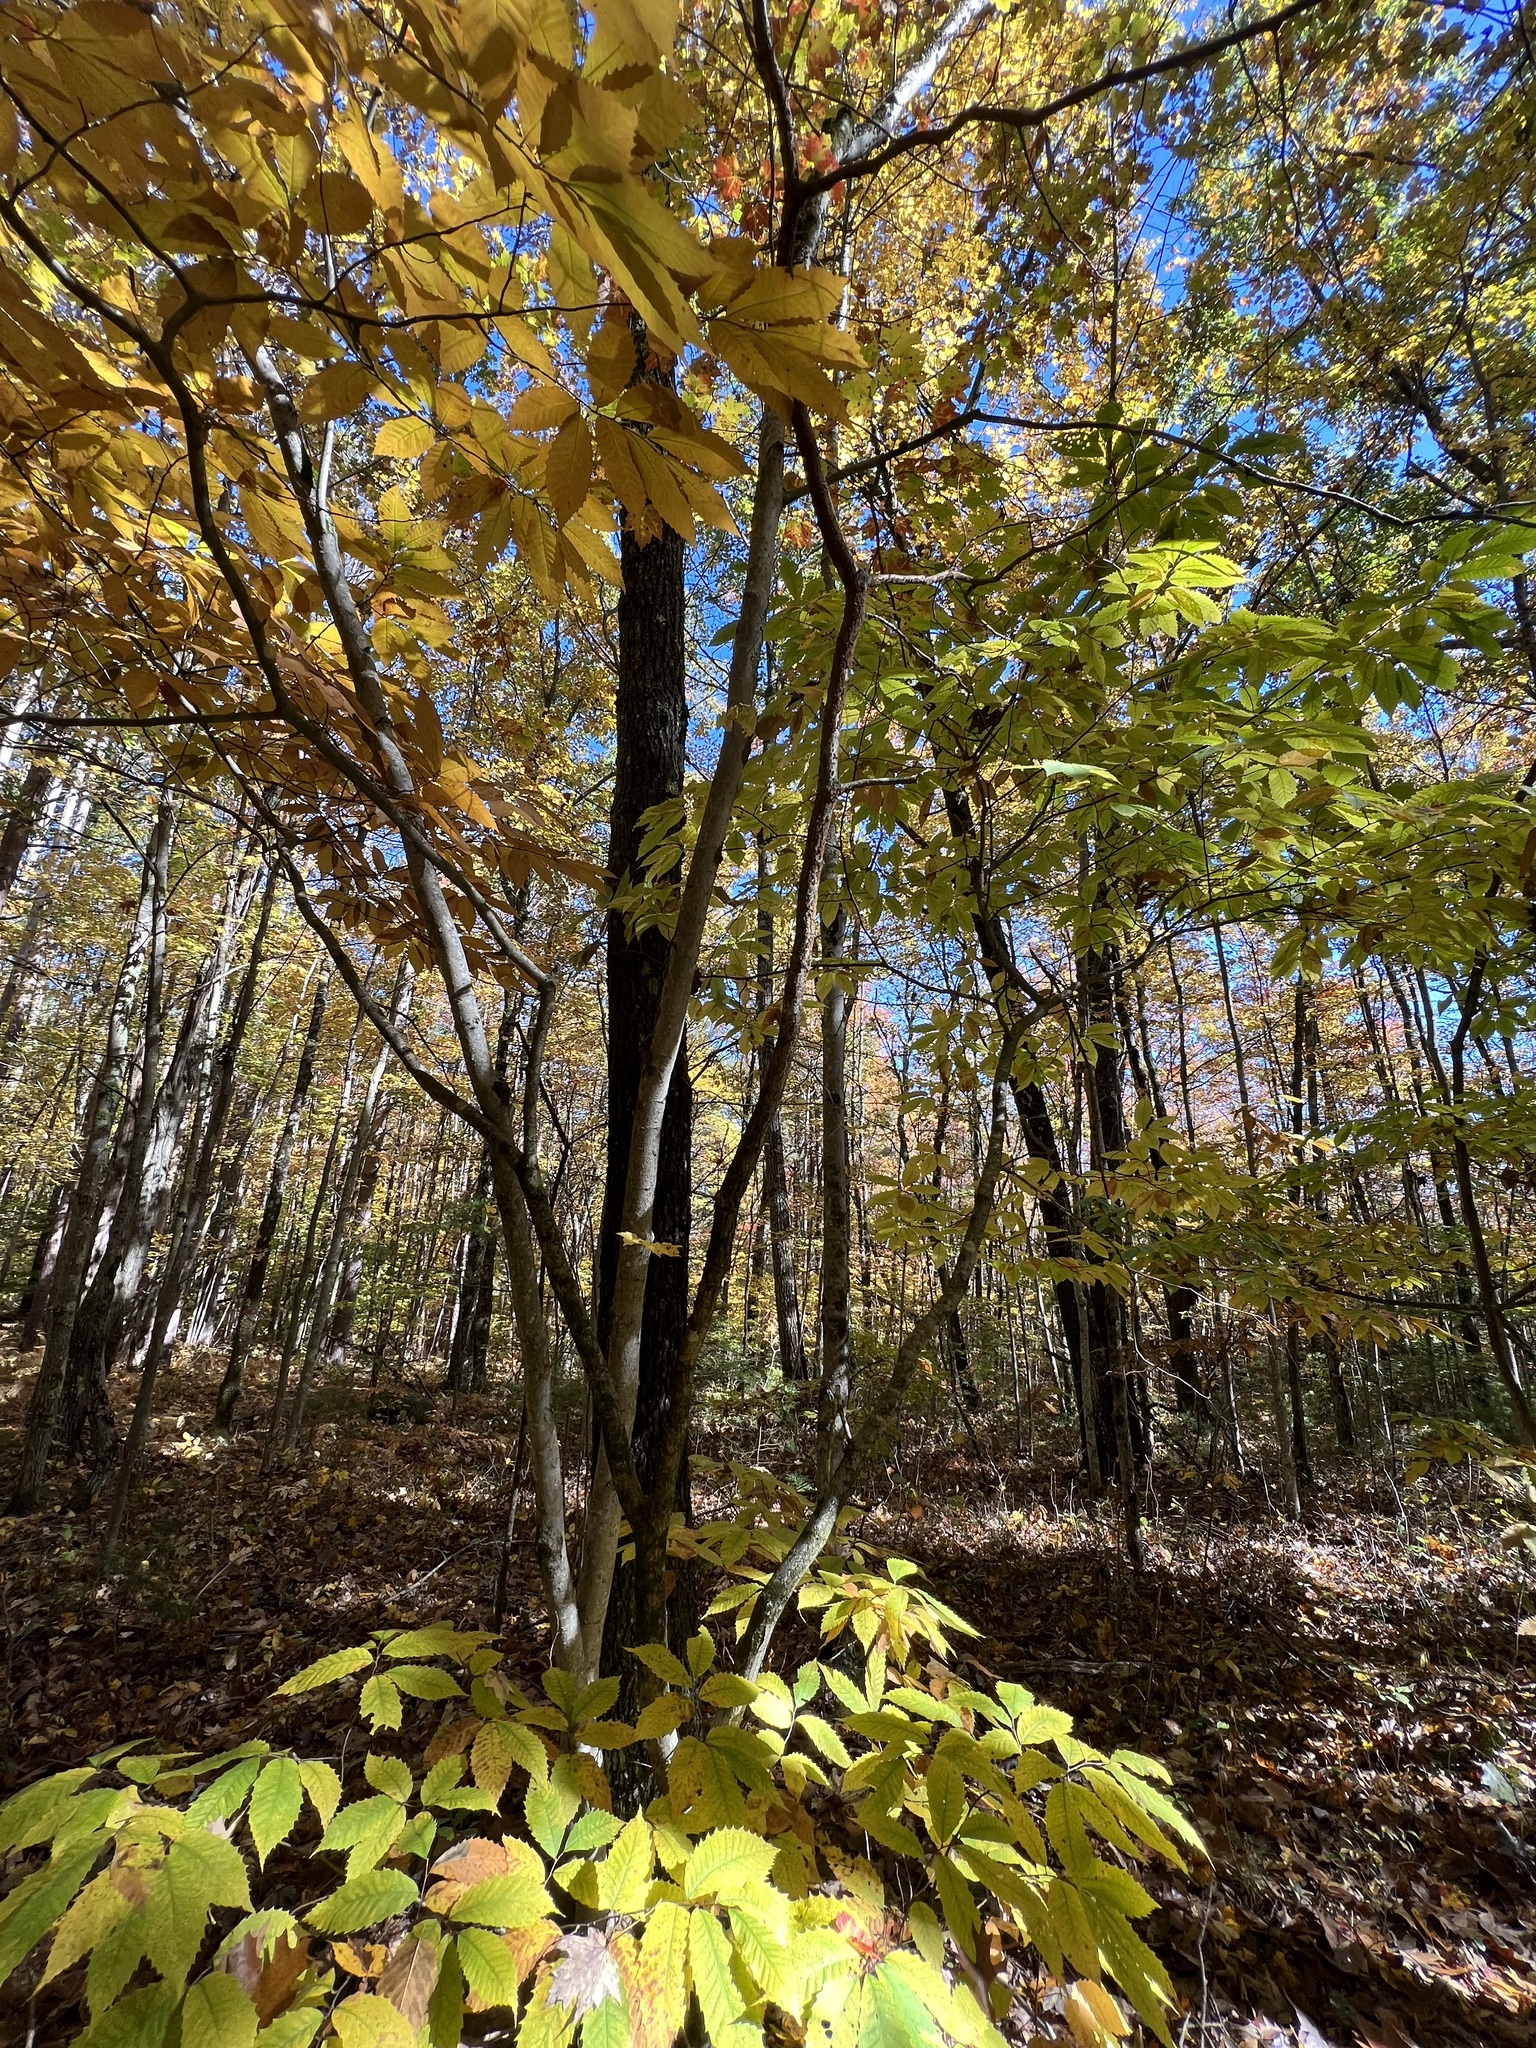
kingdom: Plantae
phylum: Tracheophyta
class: Magnoliopsida
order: Fagales
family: Fagaceae
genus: Castanea
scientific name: Castanea dentata
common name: American chestnut
